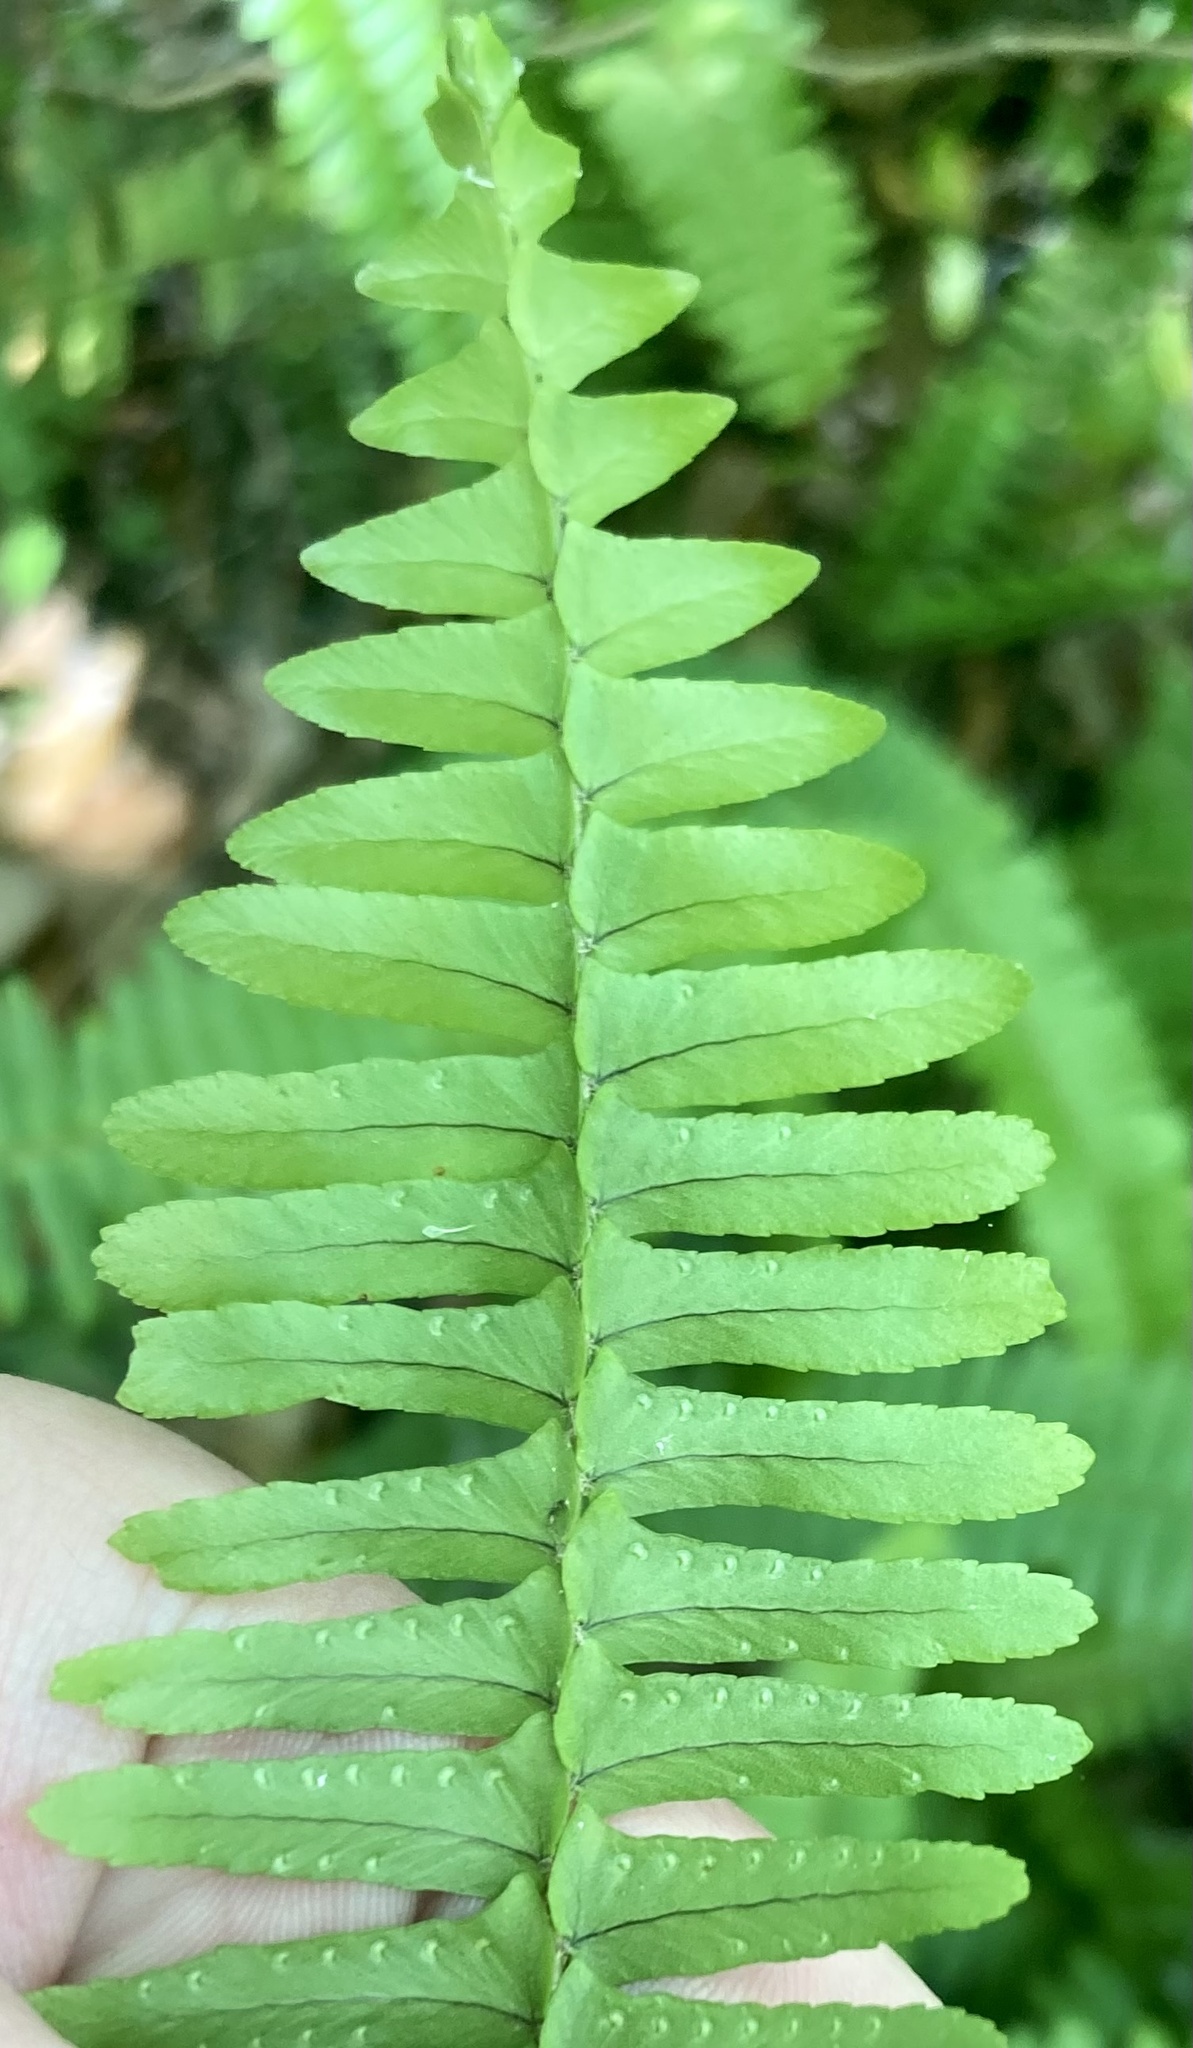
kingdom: Plantae
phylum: Tracheophyta
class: Polypodiopsida
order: Polypodiales
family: Nephrolepidaceae
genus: Nephrolepis
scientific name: Nephrolepis cordifolia
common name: Narrow swordfern
